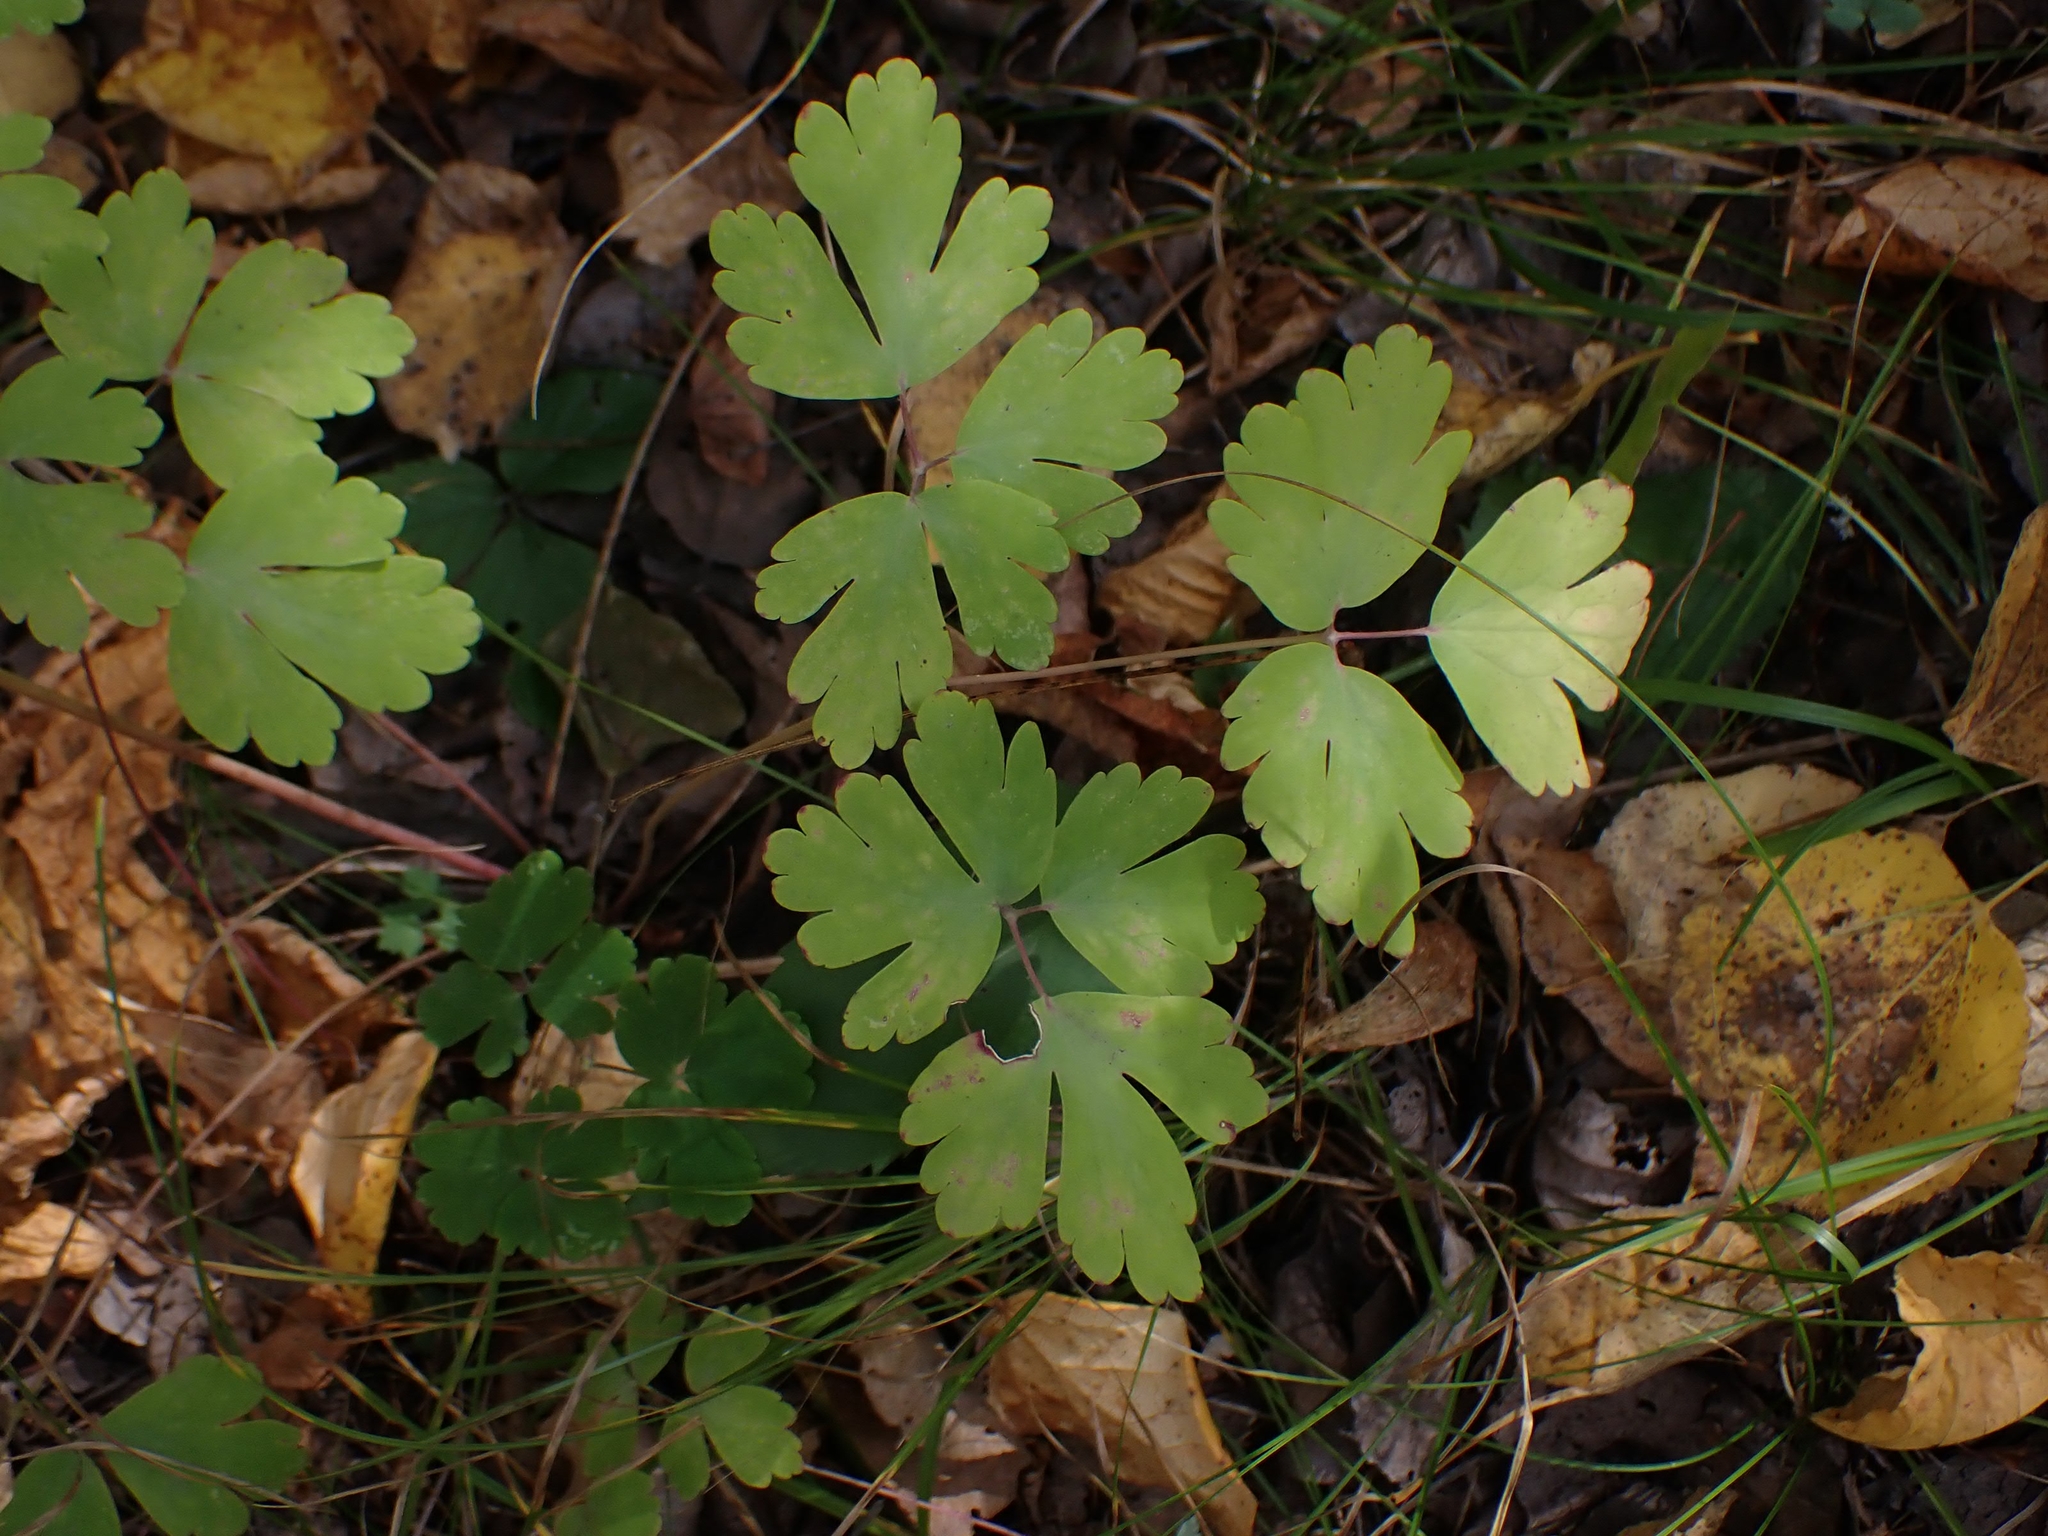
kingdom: Plantae
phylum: Tracheophyta
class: Magnoliopsida
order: Ranunculales
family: Ranunculaceae
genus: Aquilegia
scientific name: Aquilegia canadensis
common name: American columbine
